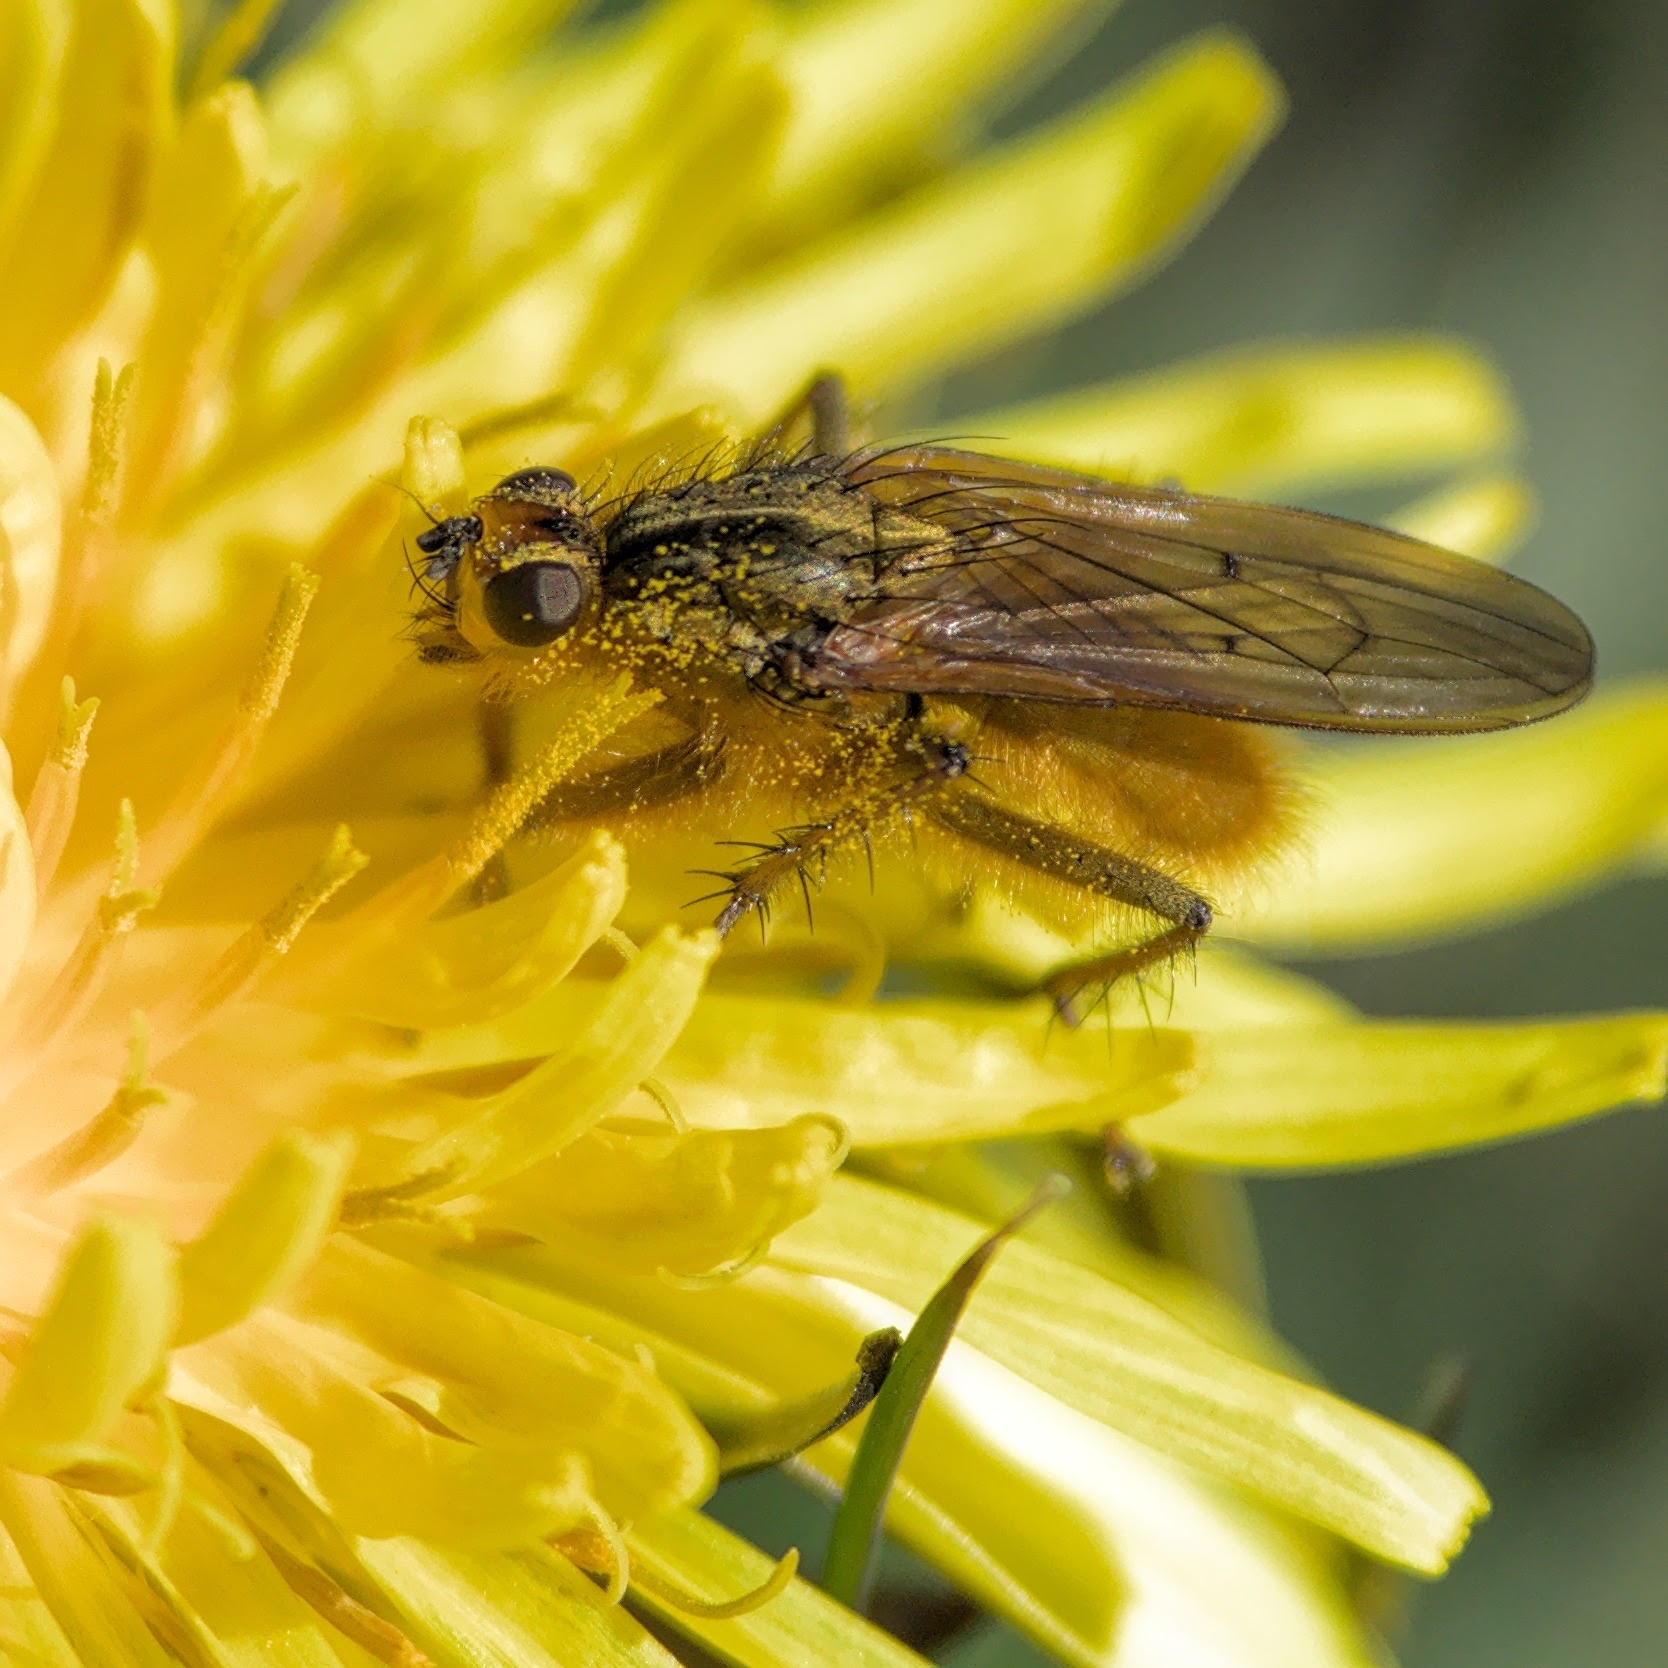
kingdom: Animalia
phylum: Arthropoda
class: Insecta
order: Diptera
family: Scathophagidae
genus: Scathophaga
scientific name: Scathophaga stercoraria
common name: Yellow dung fly
